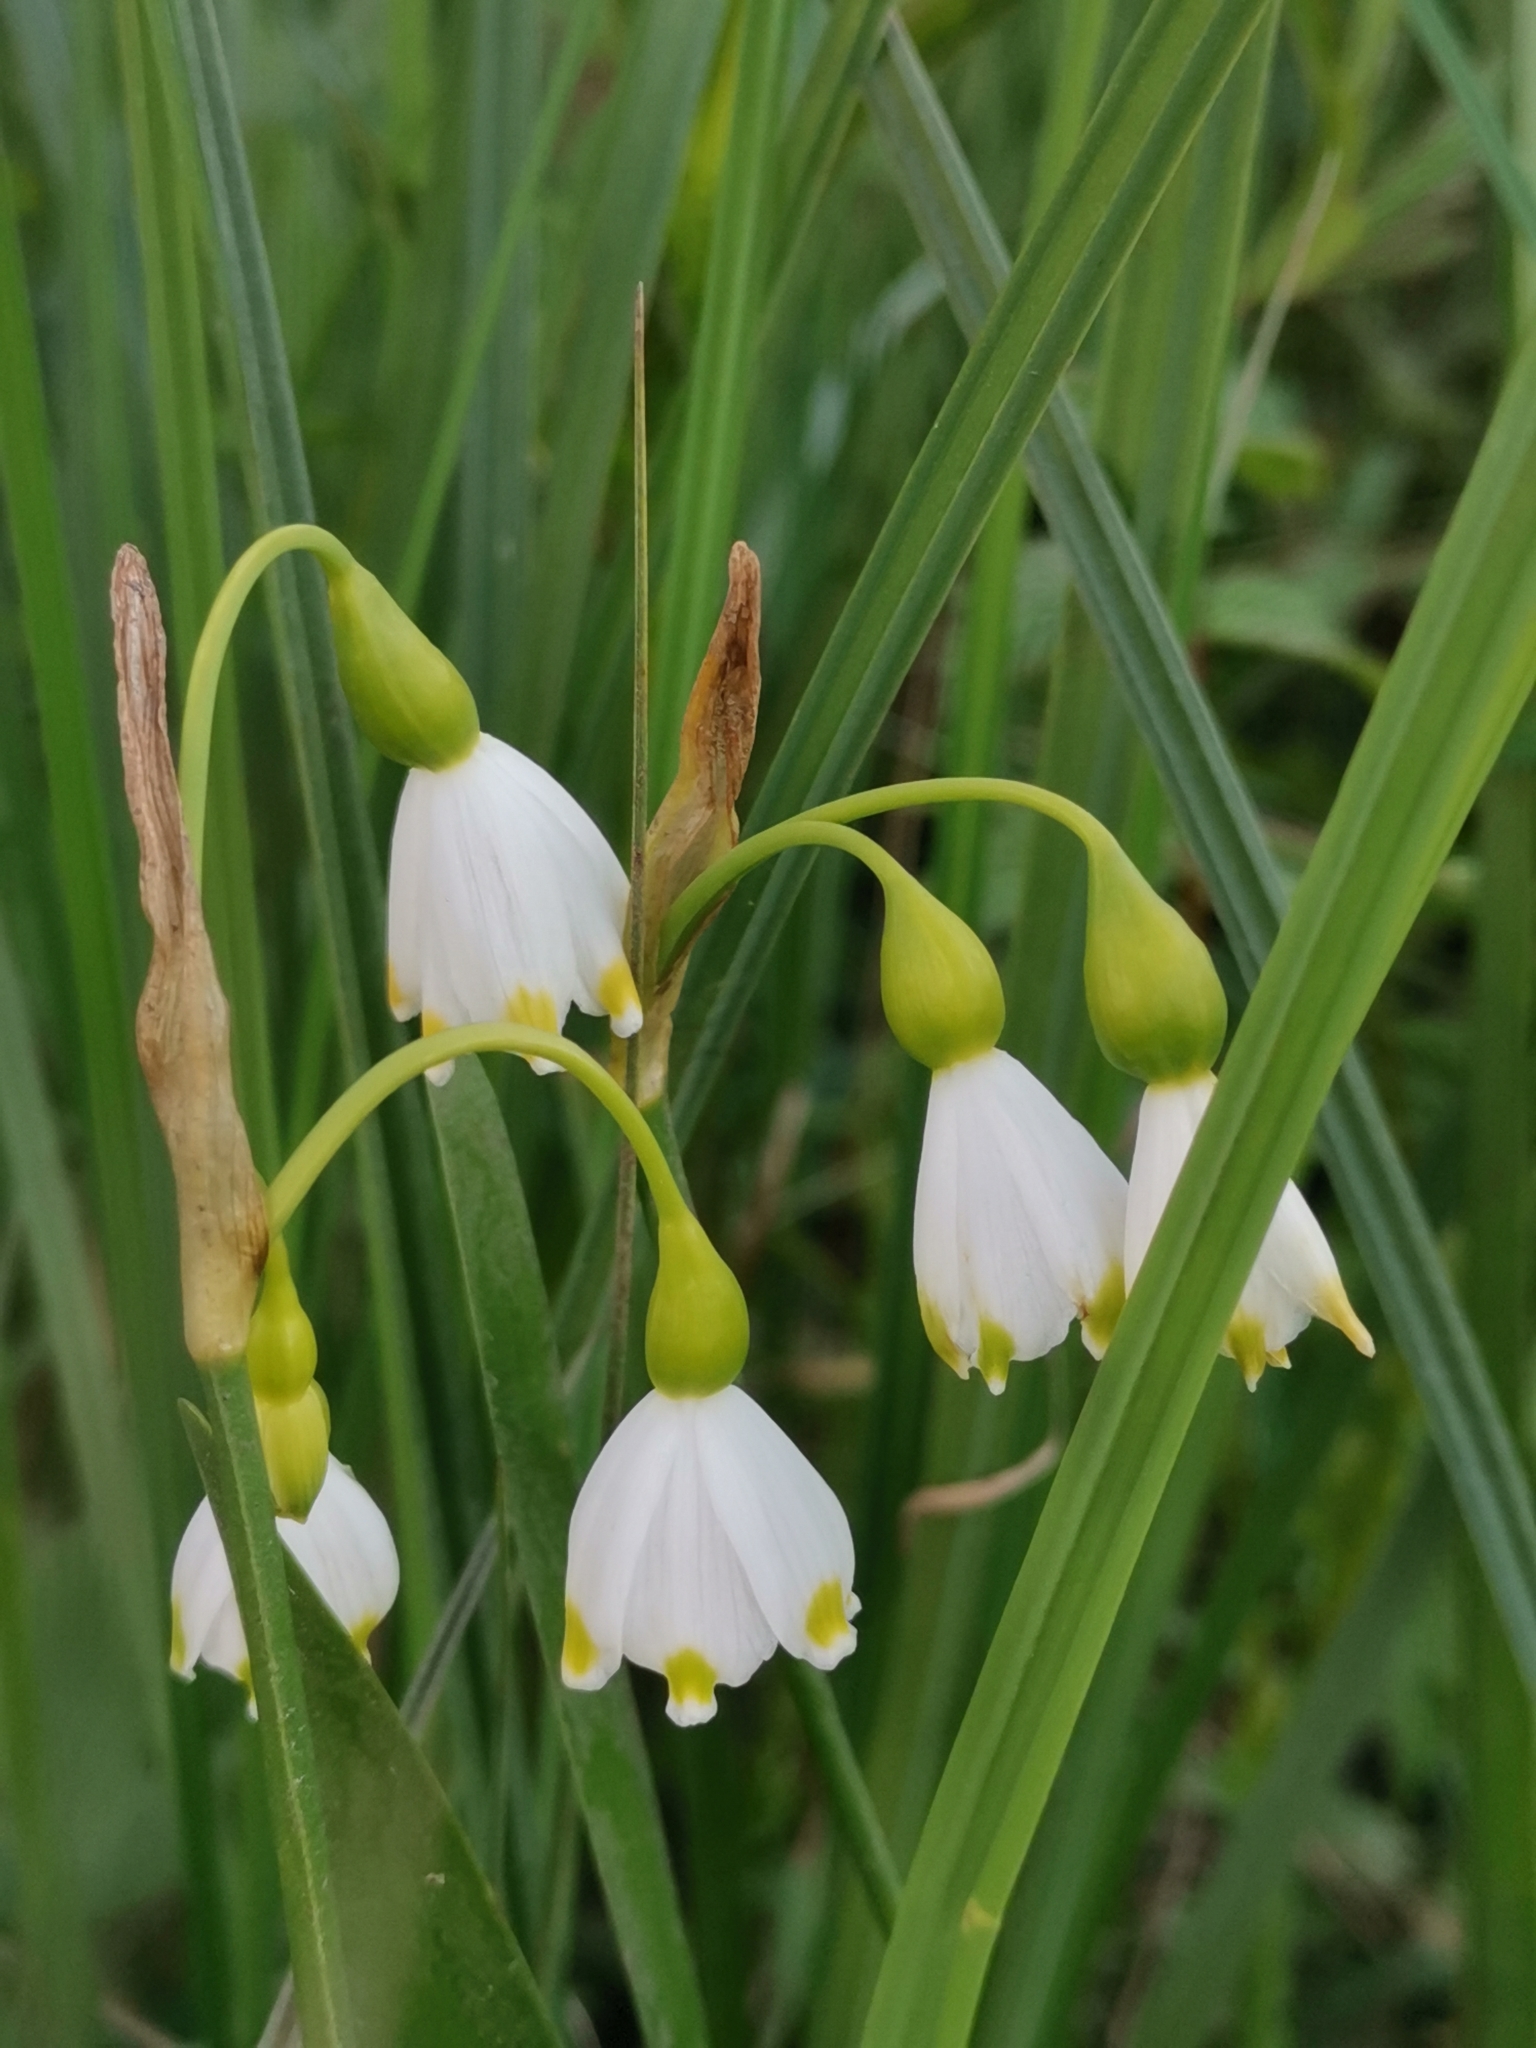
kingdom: Plantae
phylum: Tracheophyta
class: Liliopsida
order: Asparagales
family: Amaryllidaceae
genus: Leucojum
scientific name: Leucojum aestivum
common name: Summer snowflake
